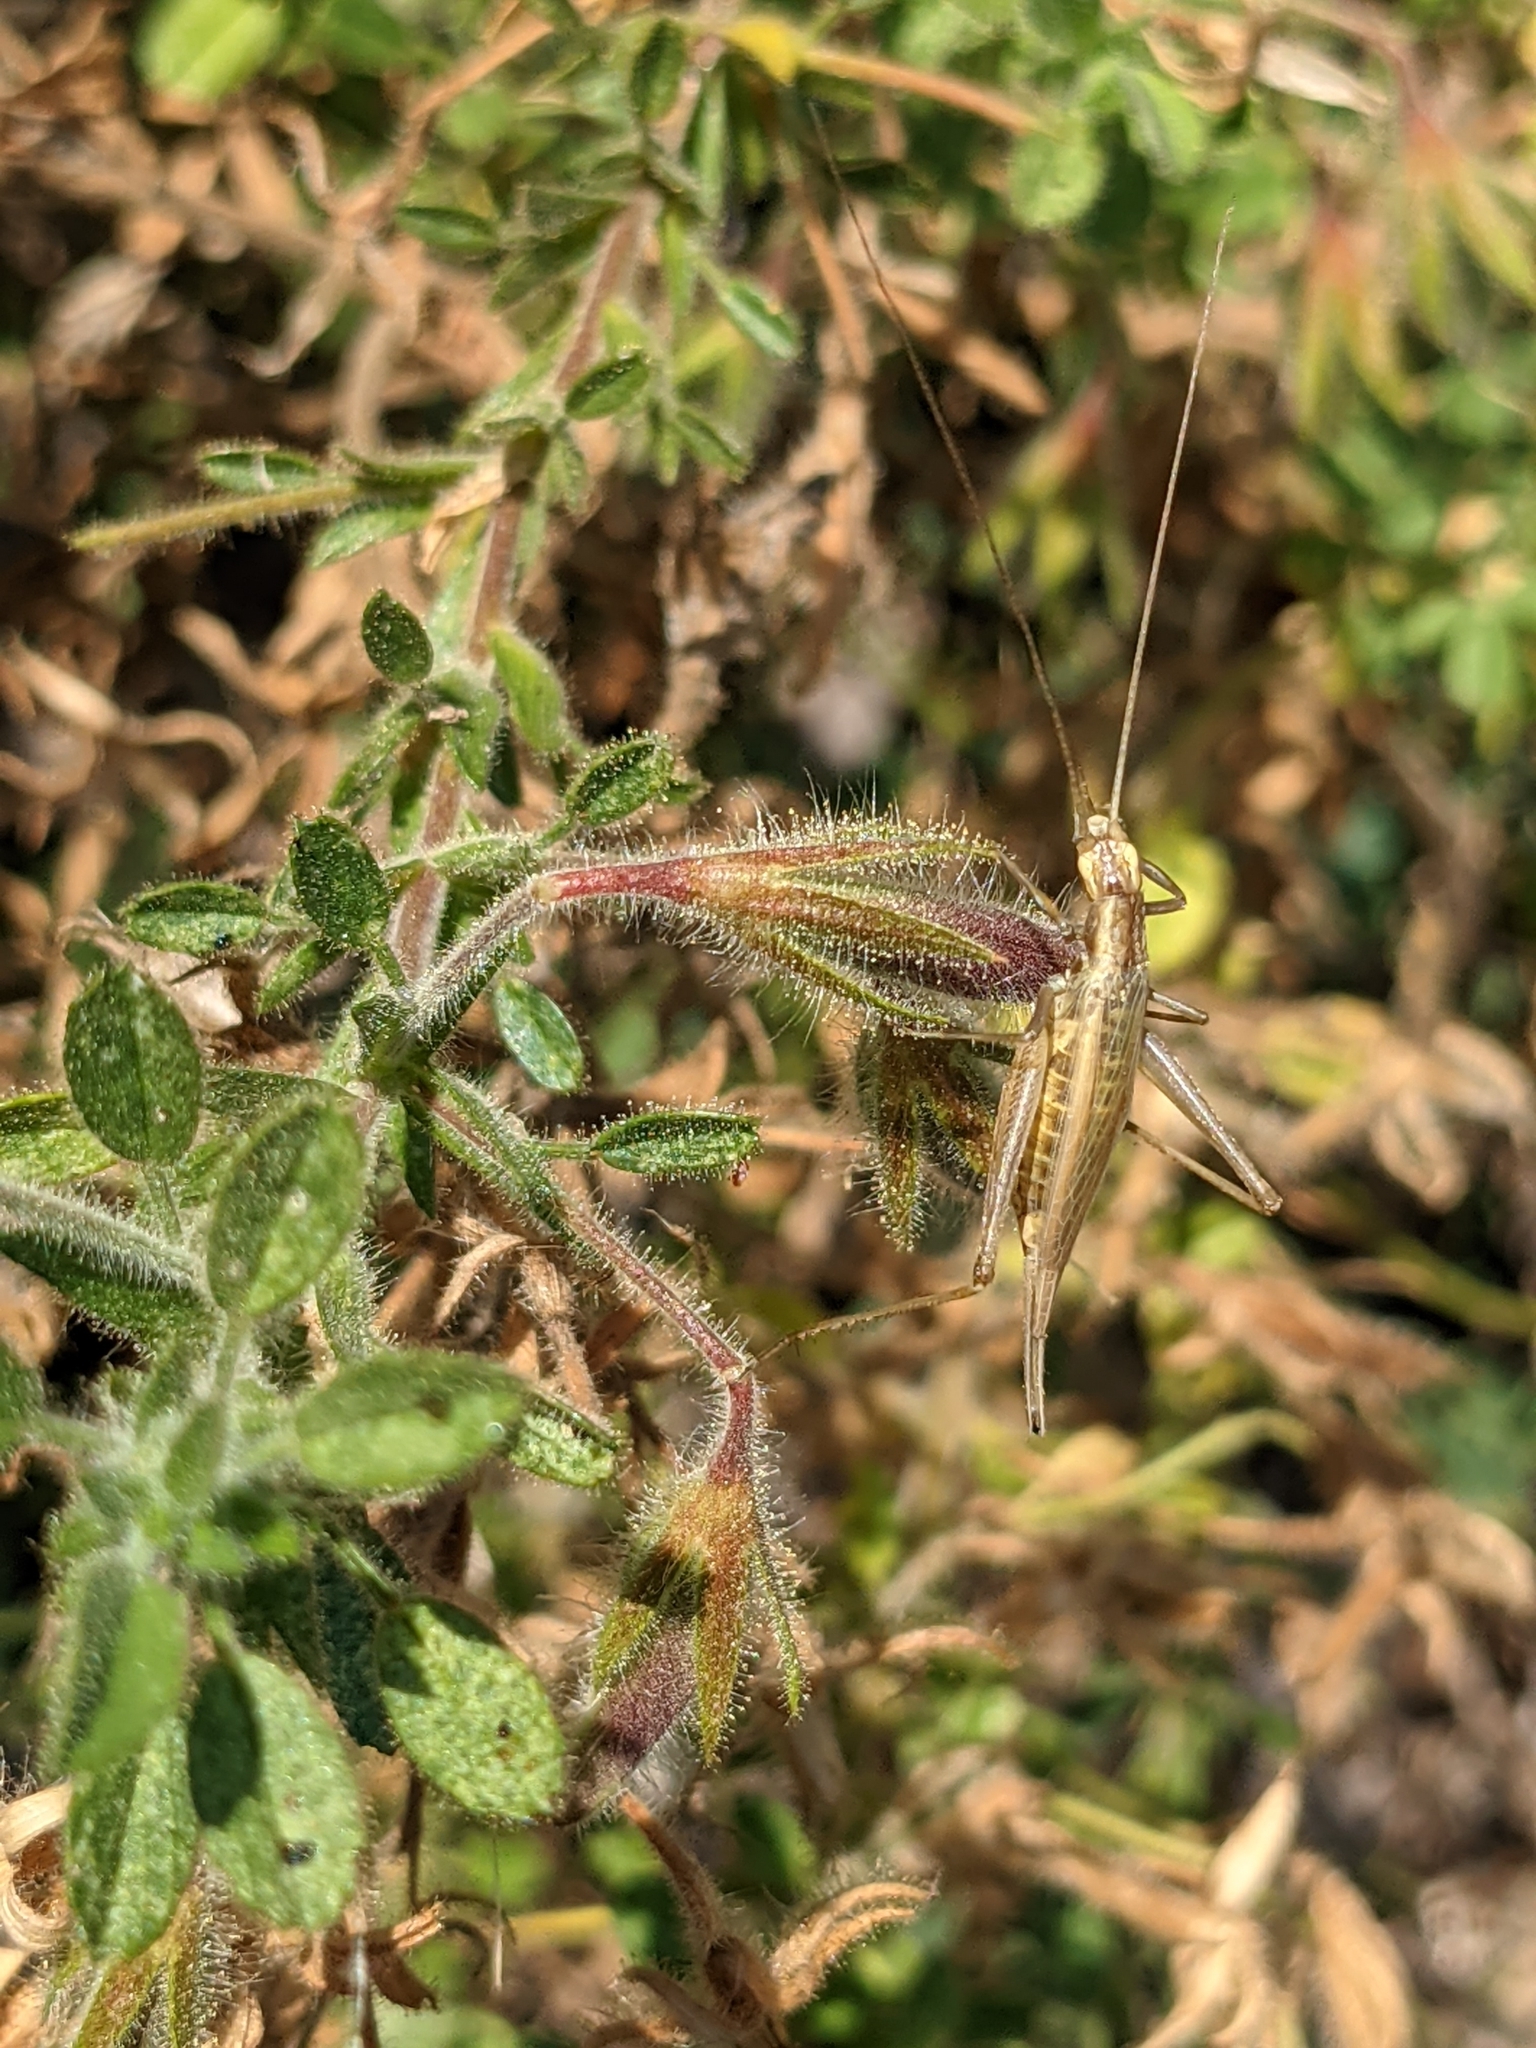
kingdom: Animalia
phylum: Arthropoda
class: Insecta
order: Orthoptera
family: Gryllidae
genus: Oecanthus
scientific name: Oecanthus pellucens
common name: Tree-cricket
